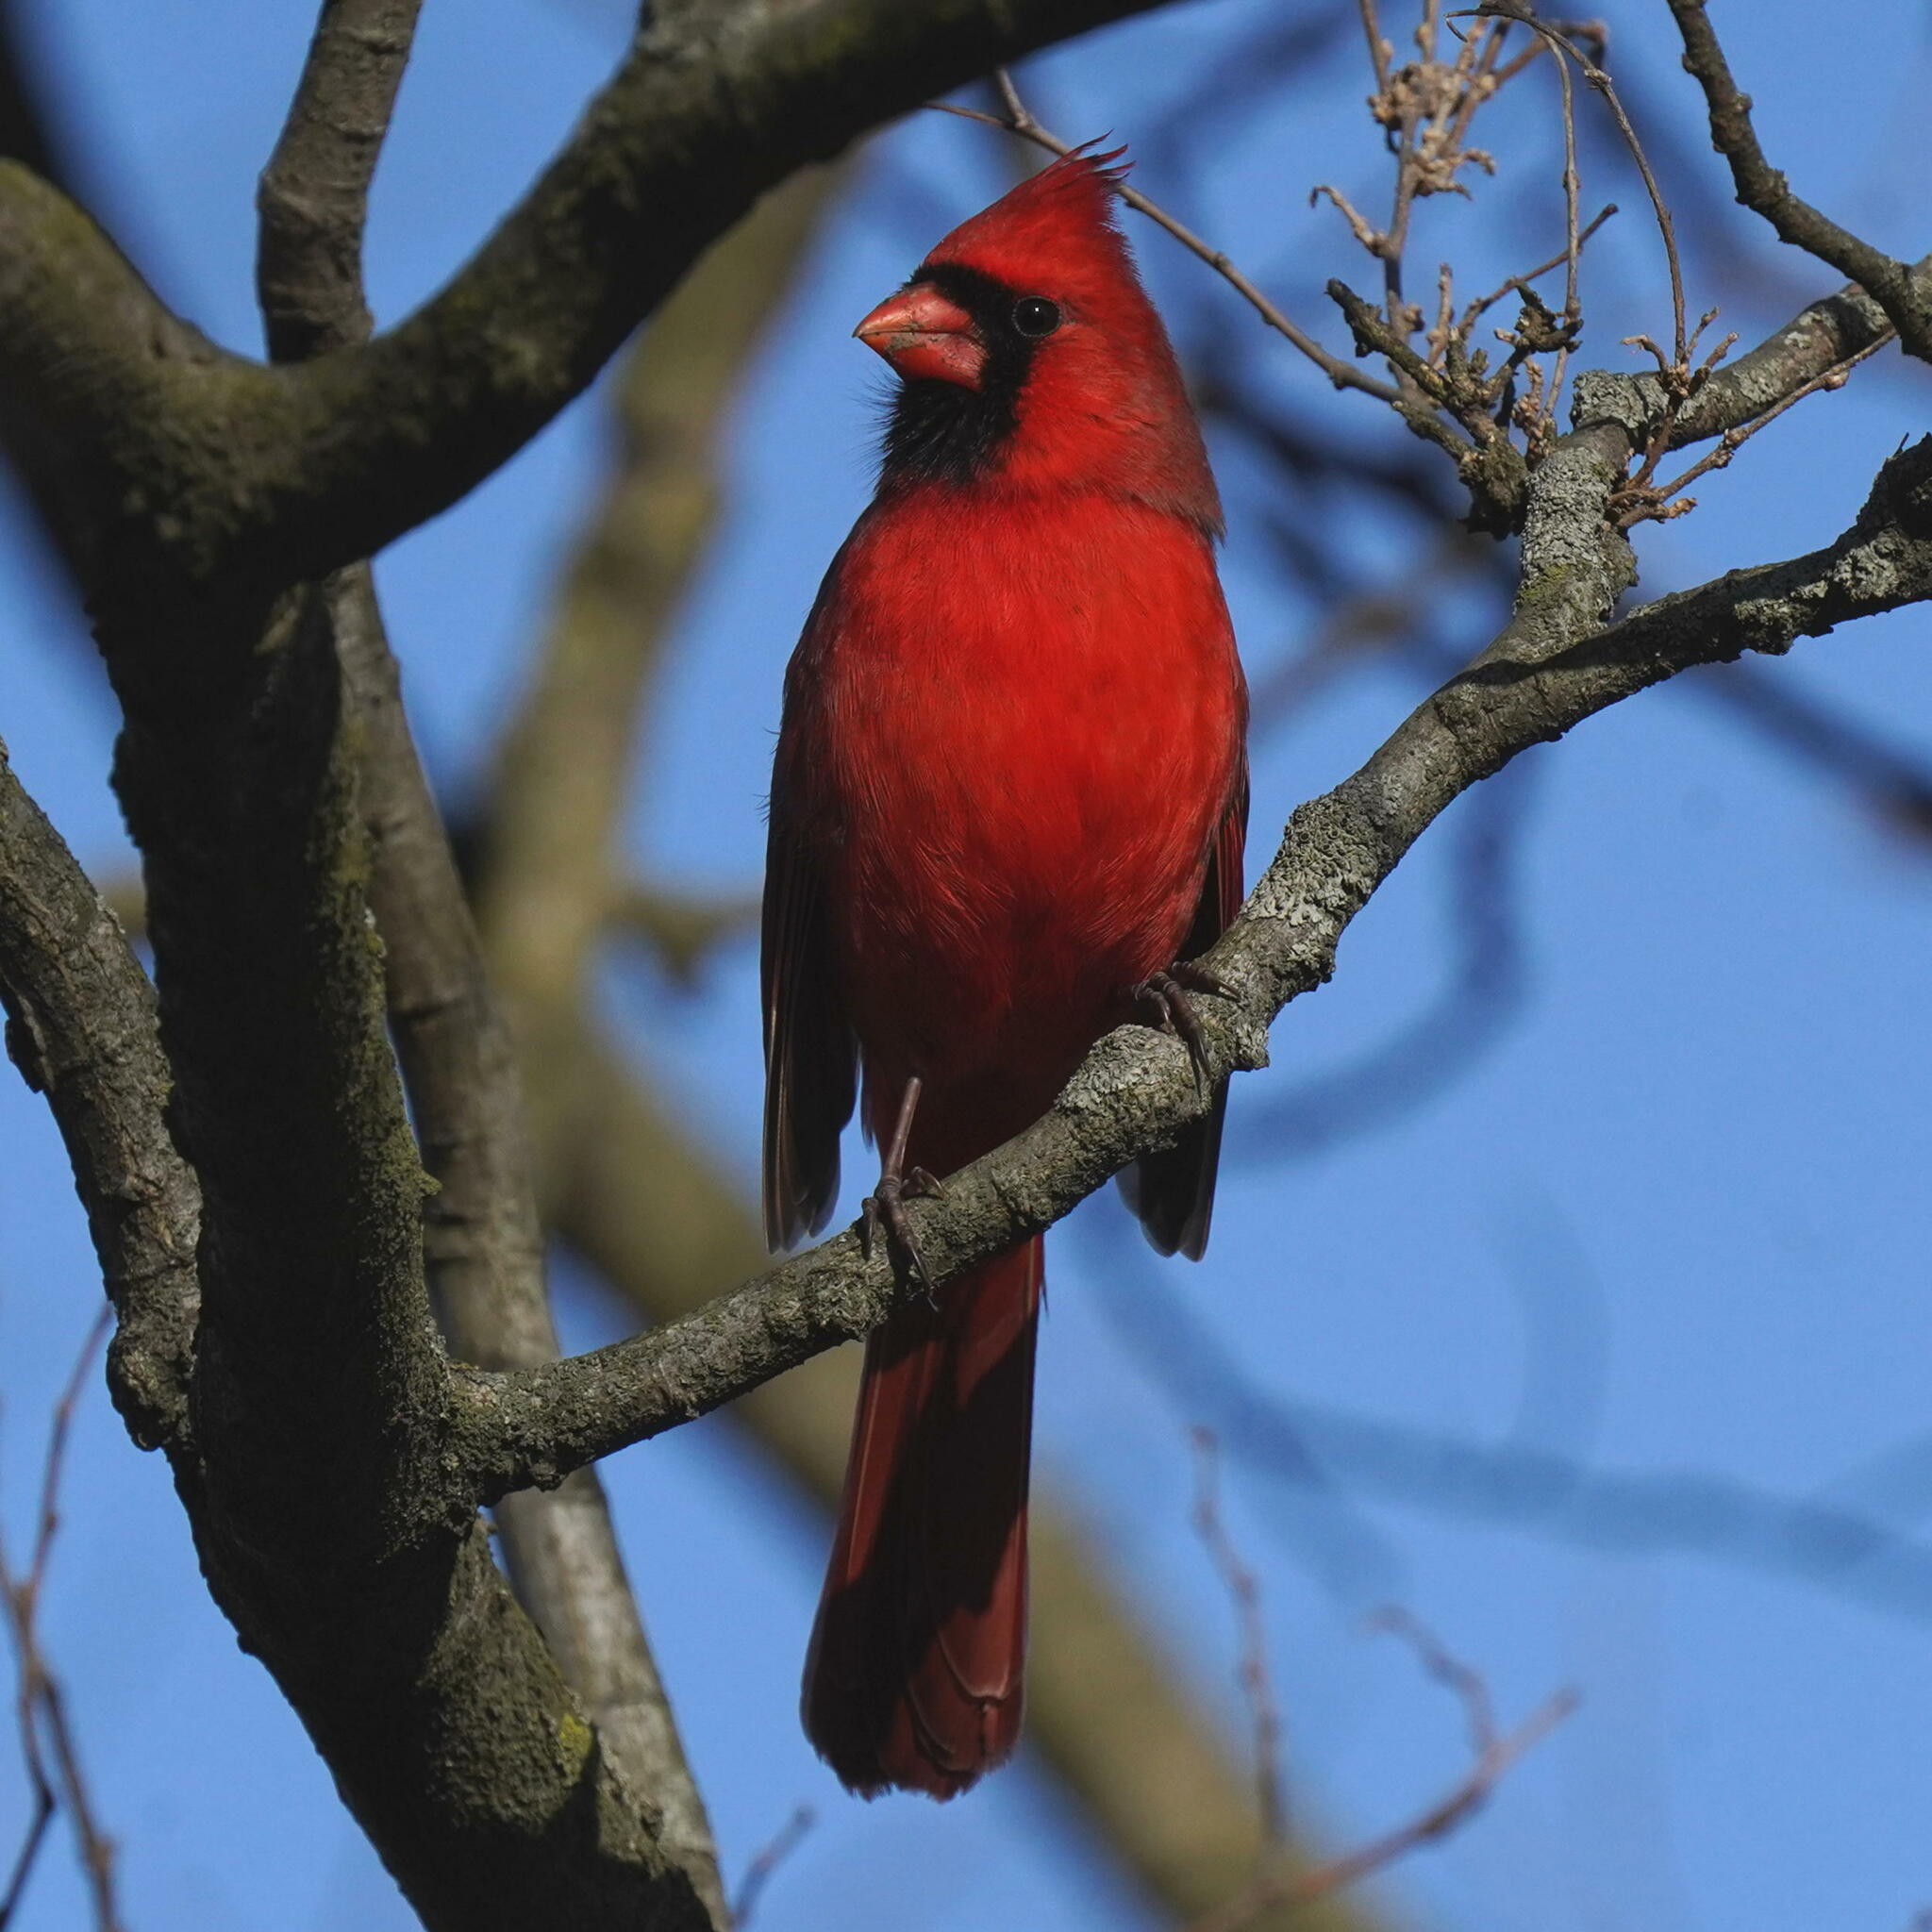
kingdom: Animalia
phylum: Chordata
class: Aves
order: Passeriformes
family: Cardinalidae
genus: Cardinalis
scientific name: Cardinalis cardinalis
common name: Northern cardinal
